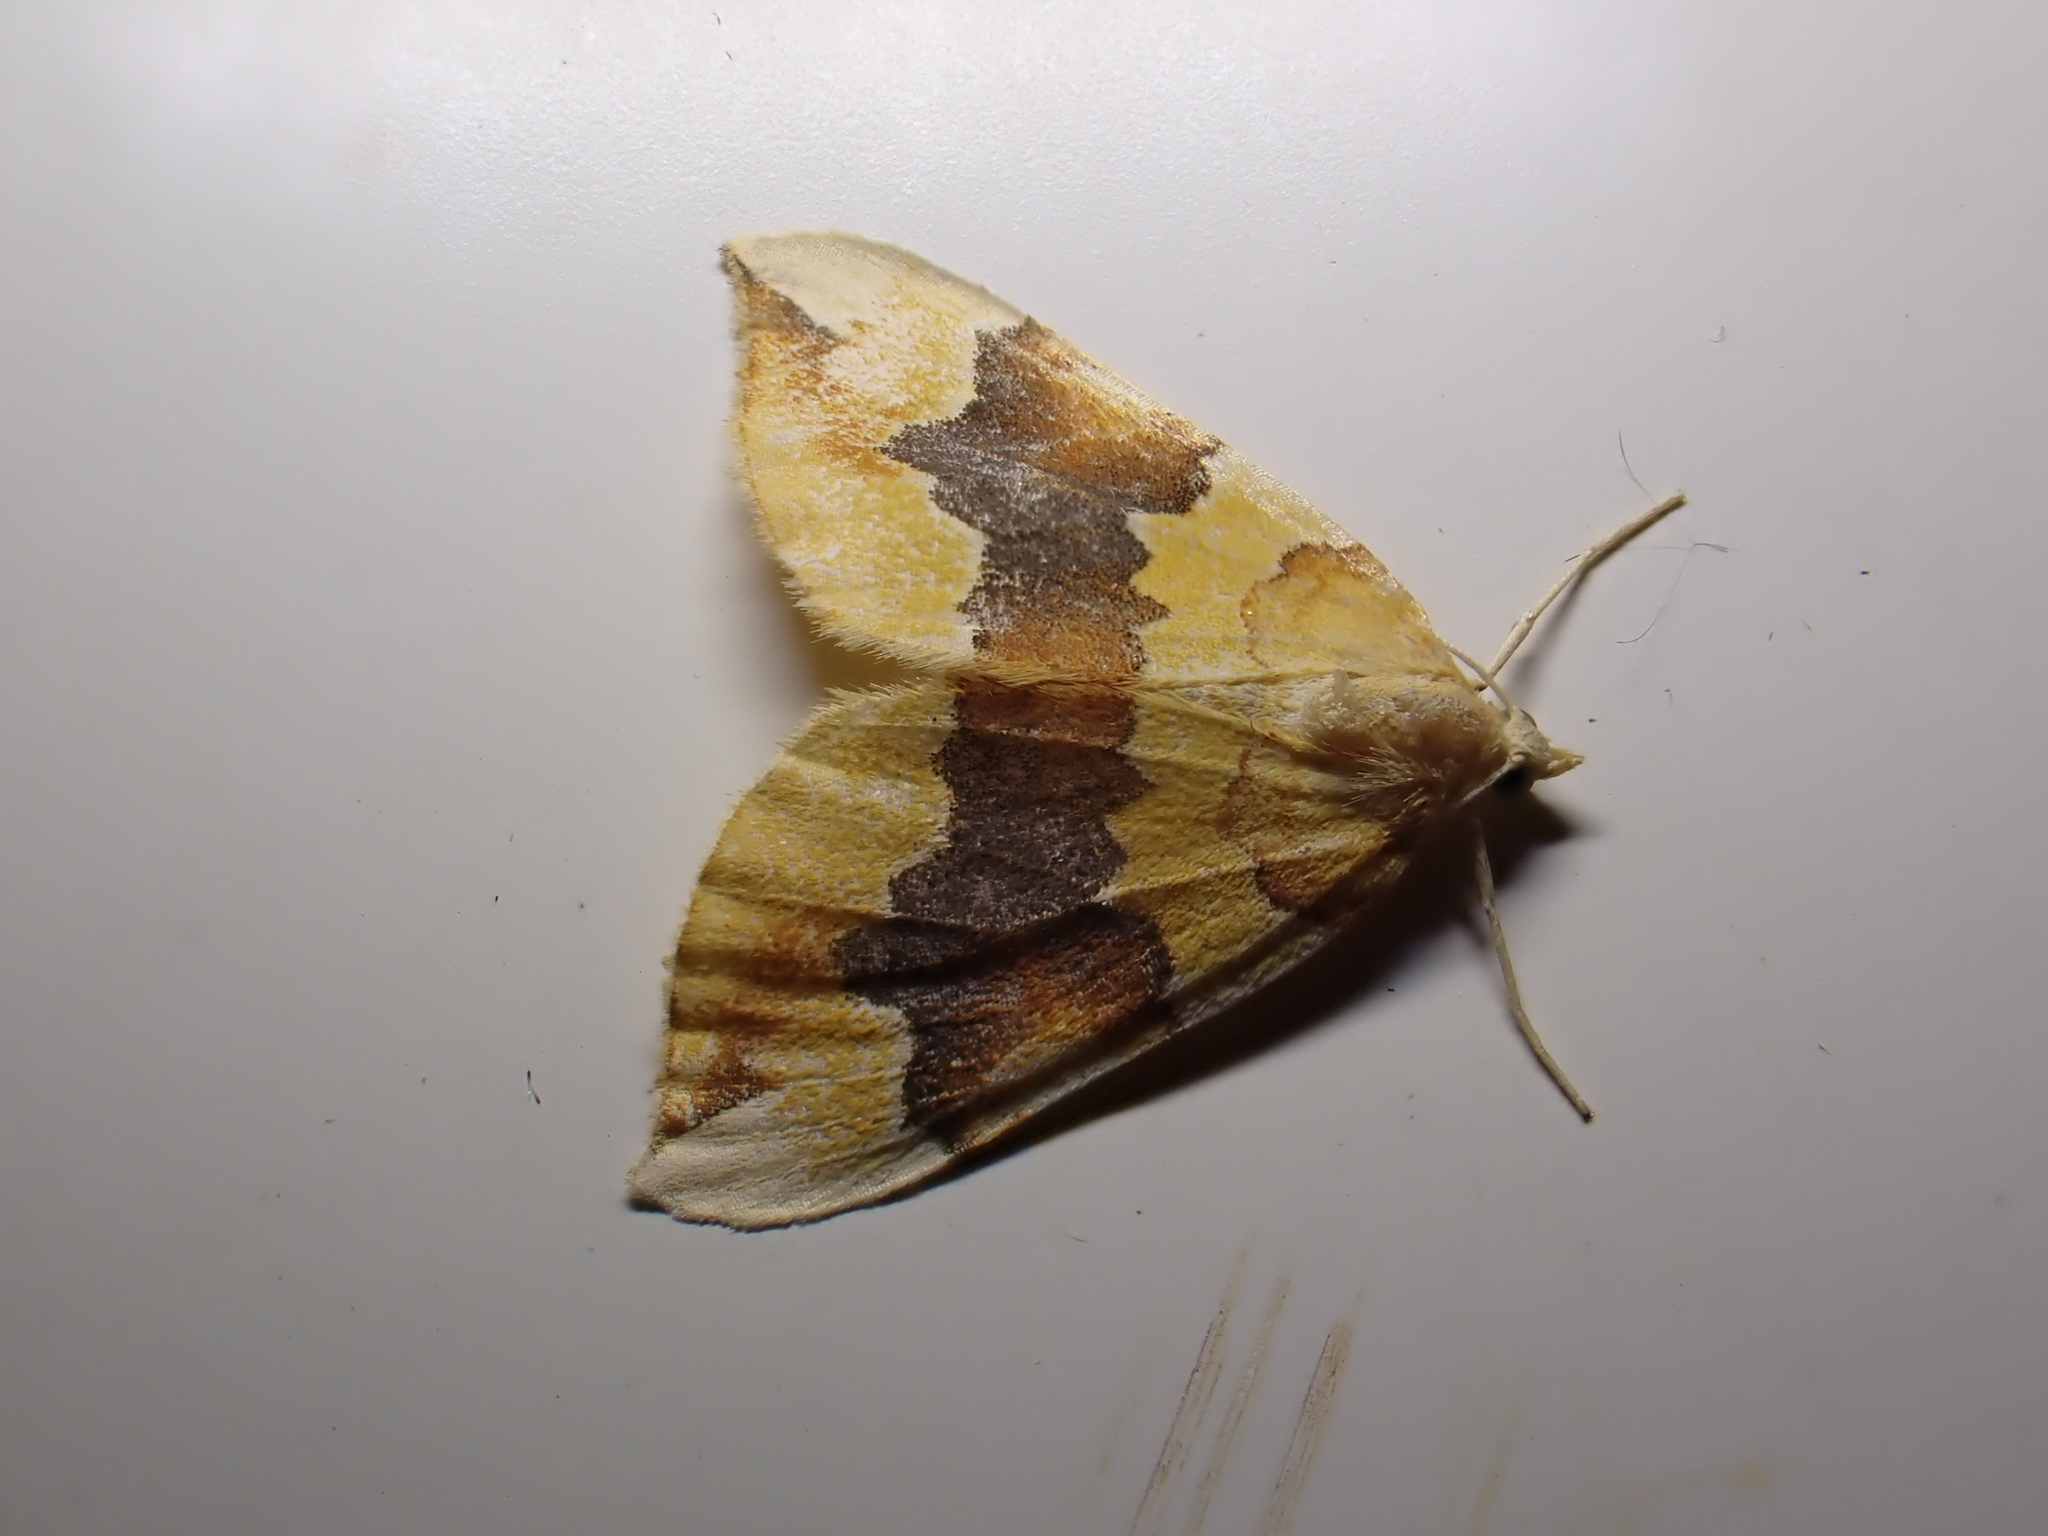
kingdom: Animalia
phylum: Arthropoda
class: Insecta
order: Lepidoptera
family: Geometridae
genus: Cidaria
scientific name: Cidaria fulvata
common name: Barred yellow
